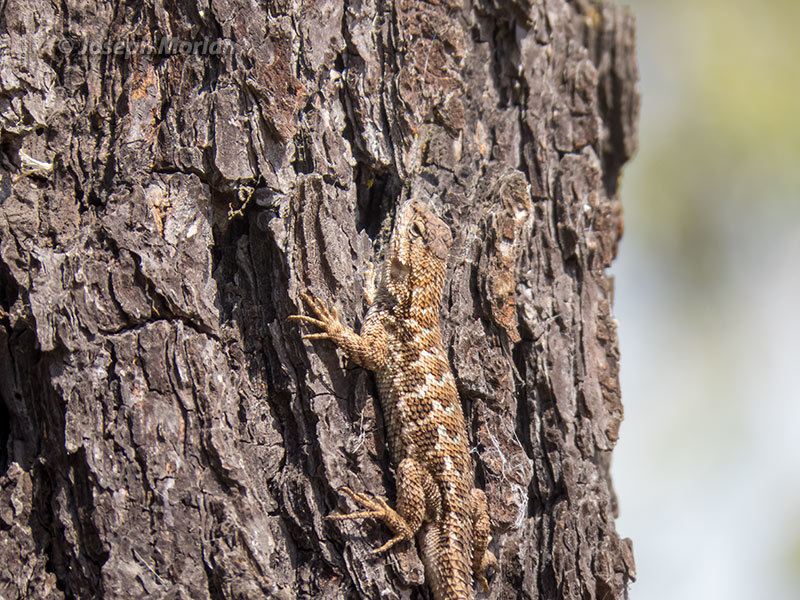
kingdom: Animalia
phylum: Chordata
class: Squamata
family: Phrynosomatidae
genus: Sceloporus
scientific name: Sceloporus occidentalis
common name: Western fence lizard
